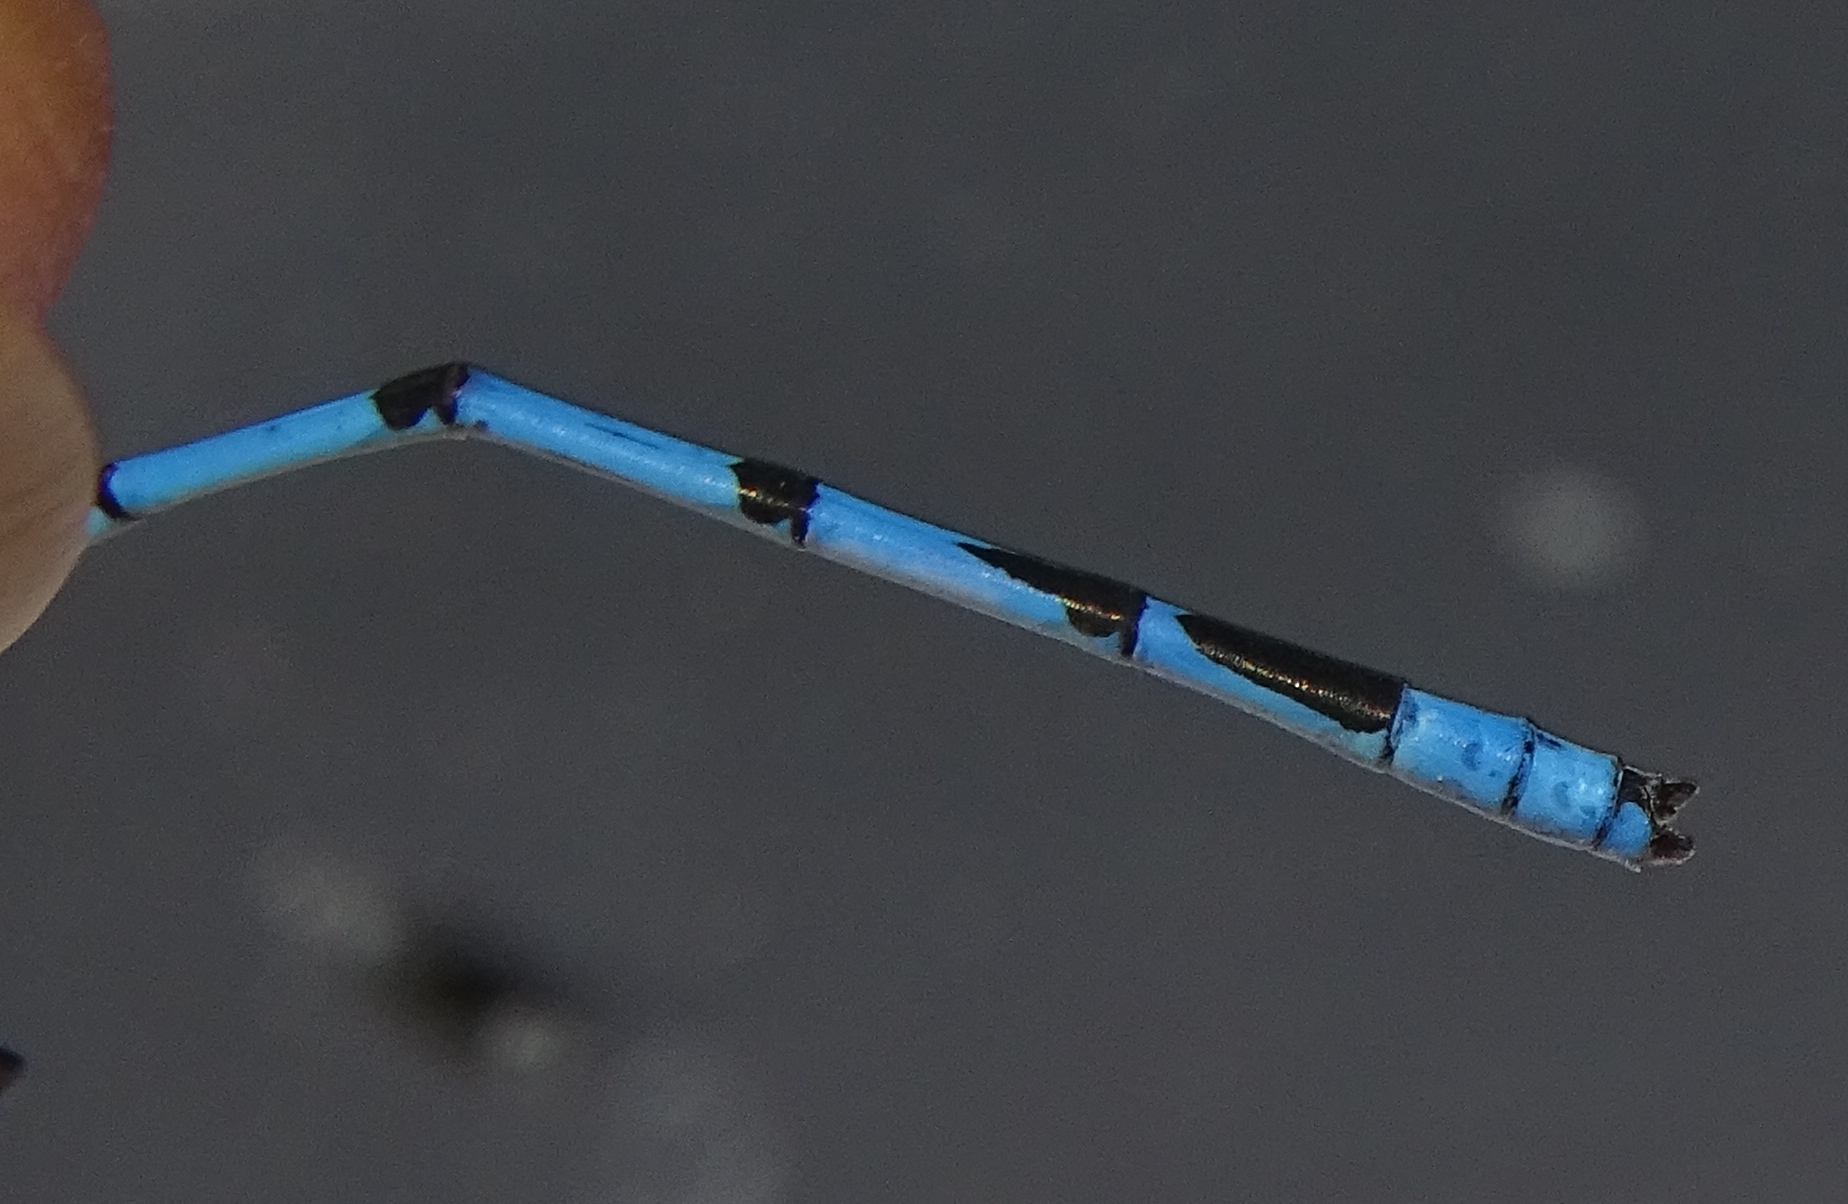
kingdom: Animalia
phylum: Arthropoda
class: Insecta
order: Odonata
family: Coenagrionidae
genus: Enallagma
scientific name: Enallagma civile
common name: Damselfly
